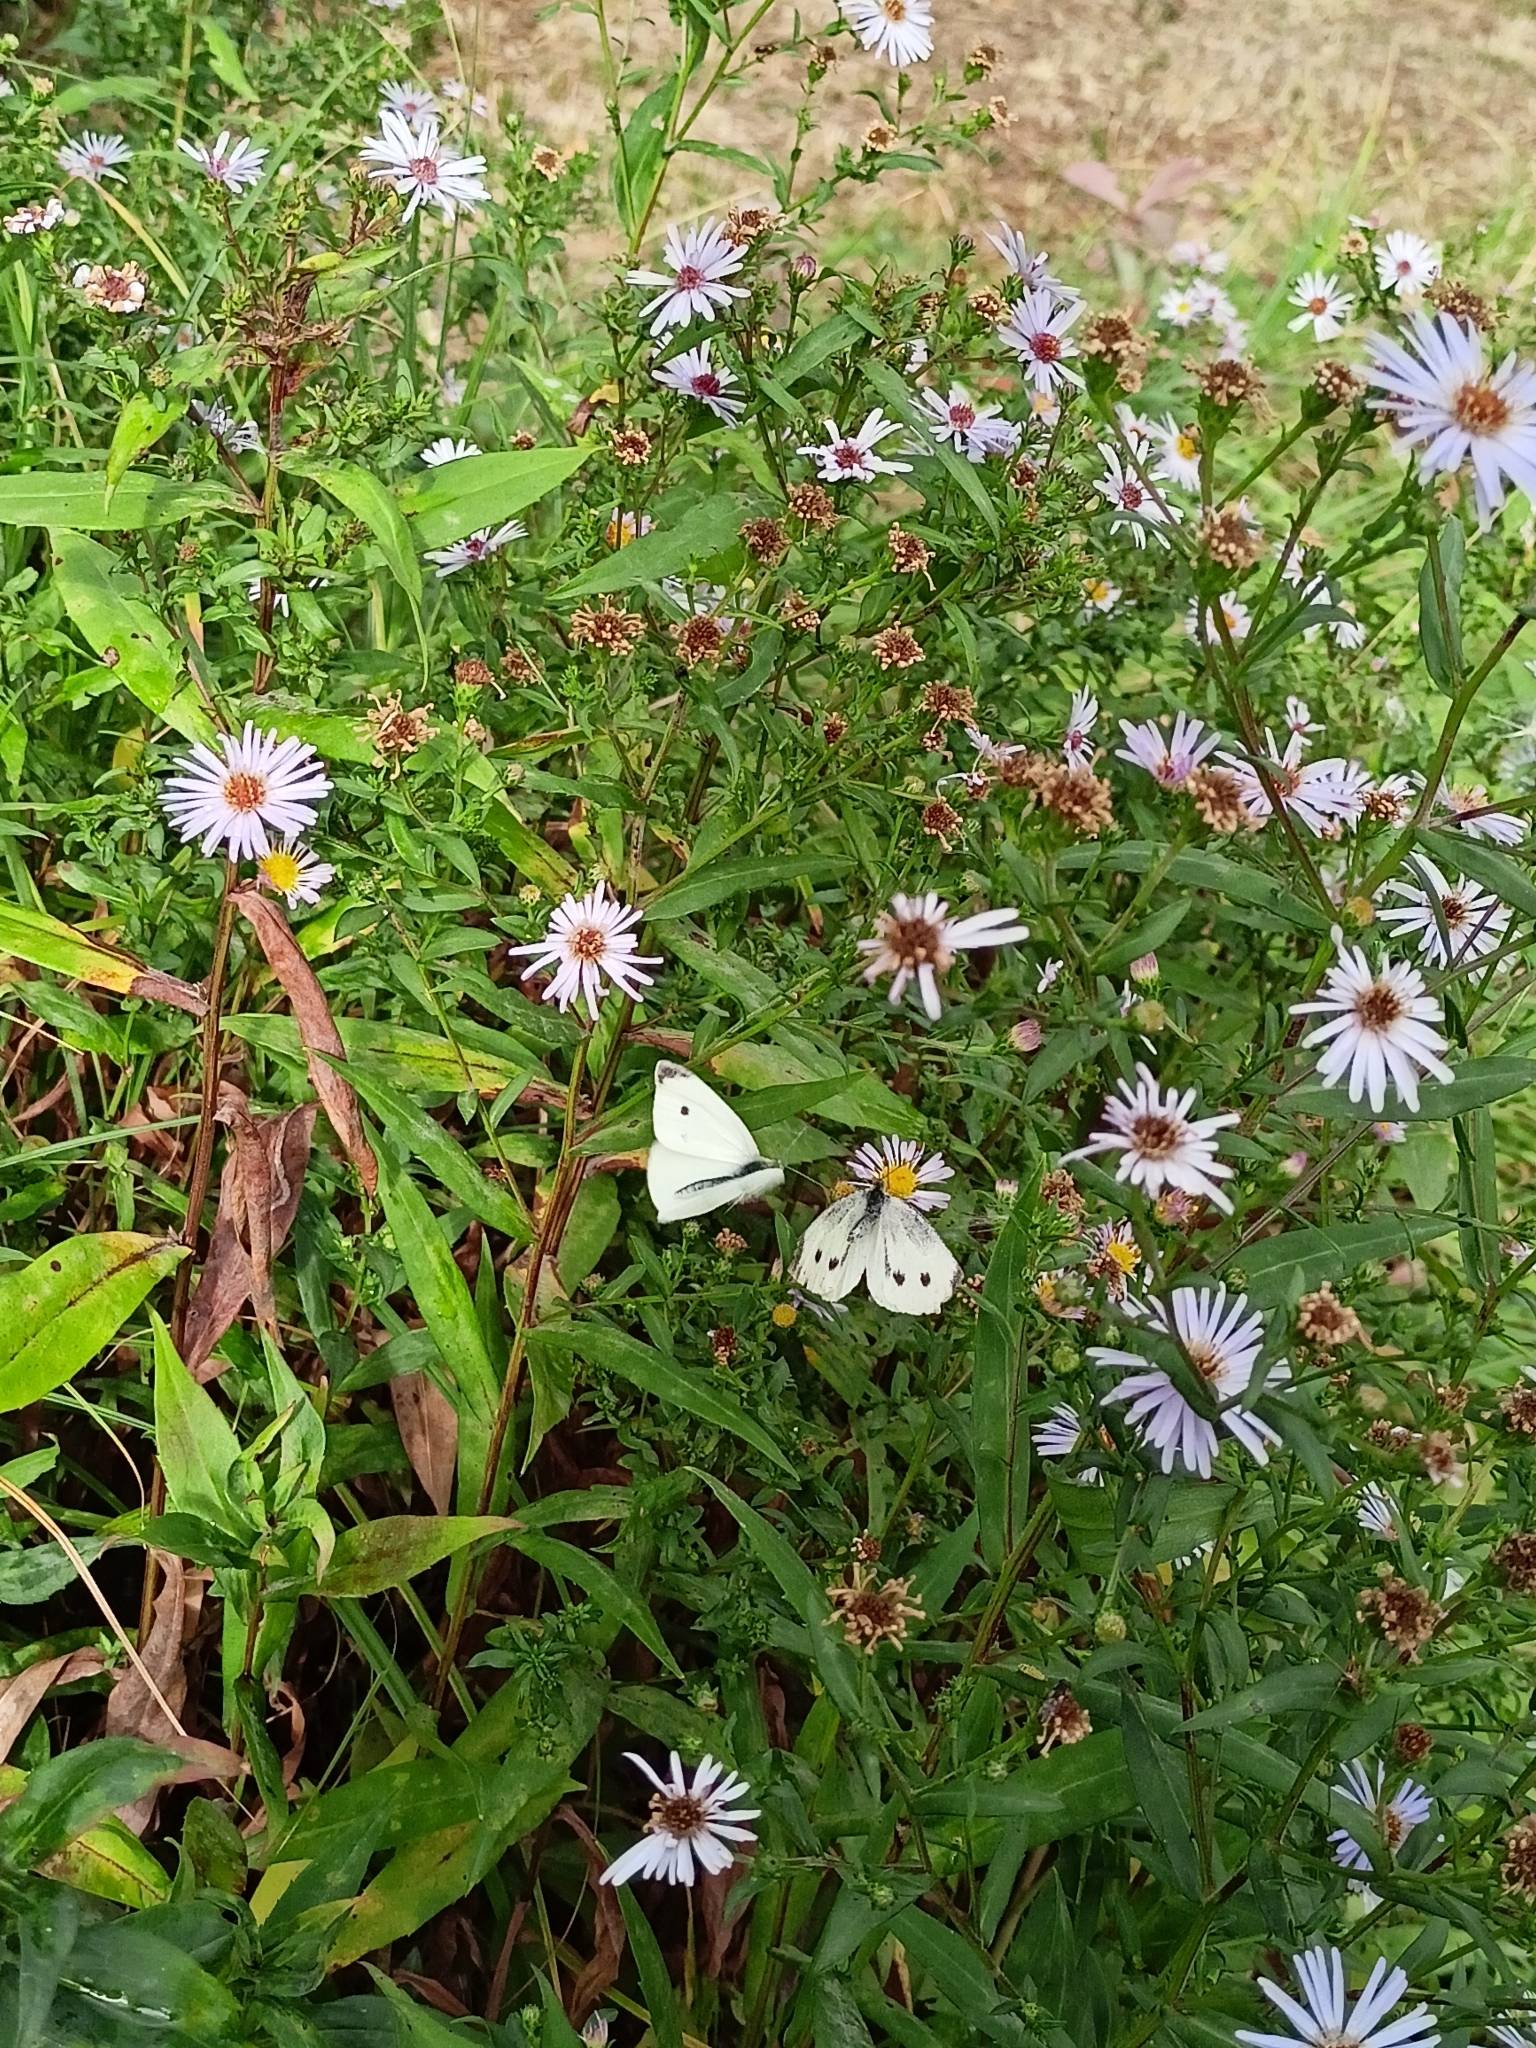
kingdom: Animalia
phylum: Arthropoda
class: Insecta
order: Lepidoptera
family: Pieridae
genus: Pieris
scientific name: Pieris rapae
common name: Small white
